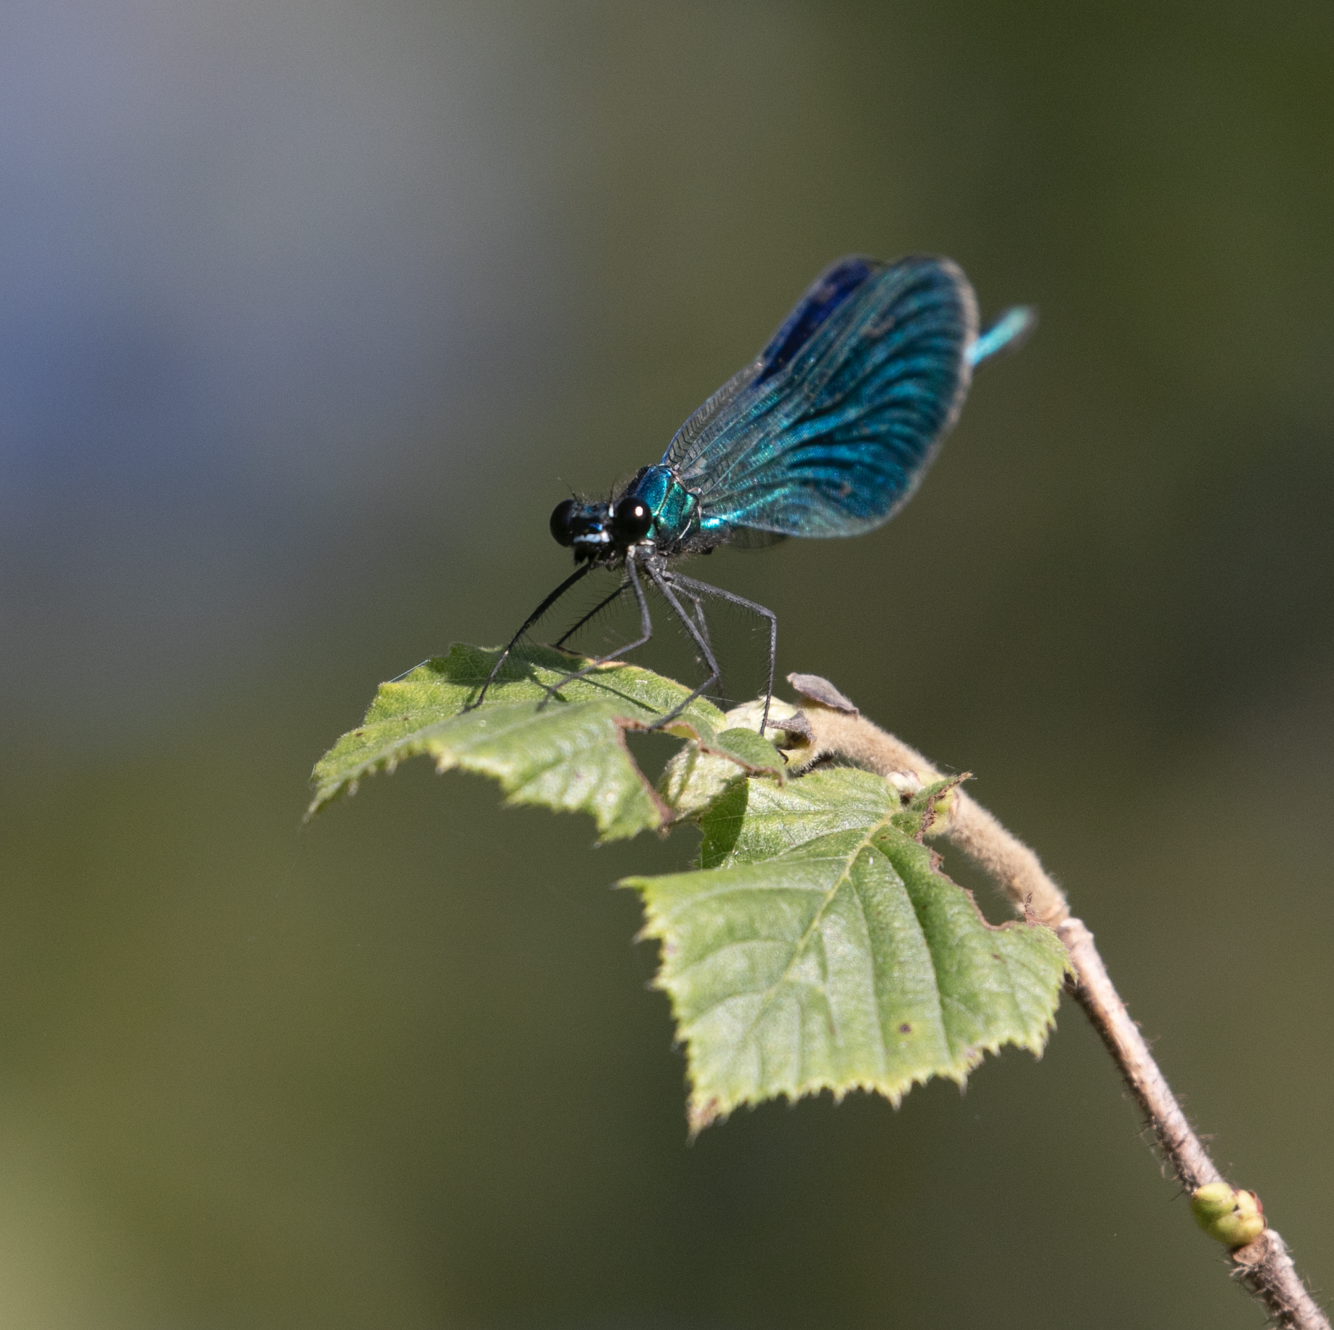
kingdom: Animalia
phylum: Arthropoda
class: Insecta
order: Odonata
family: Calopterygidae
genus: Calopteryx
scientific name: Calopteryx splendens
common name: Banded demoiselle
